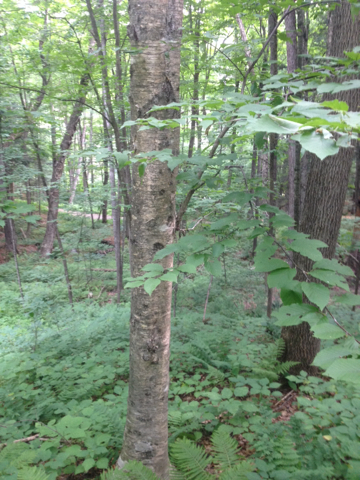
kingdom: Plantae
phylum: Tracheophyta
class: Magnoliopsida
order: Fagales
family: Betulaceae
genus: Betula
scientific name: Betula alleghaniensis
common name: Yellow birch
